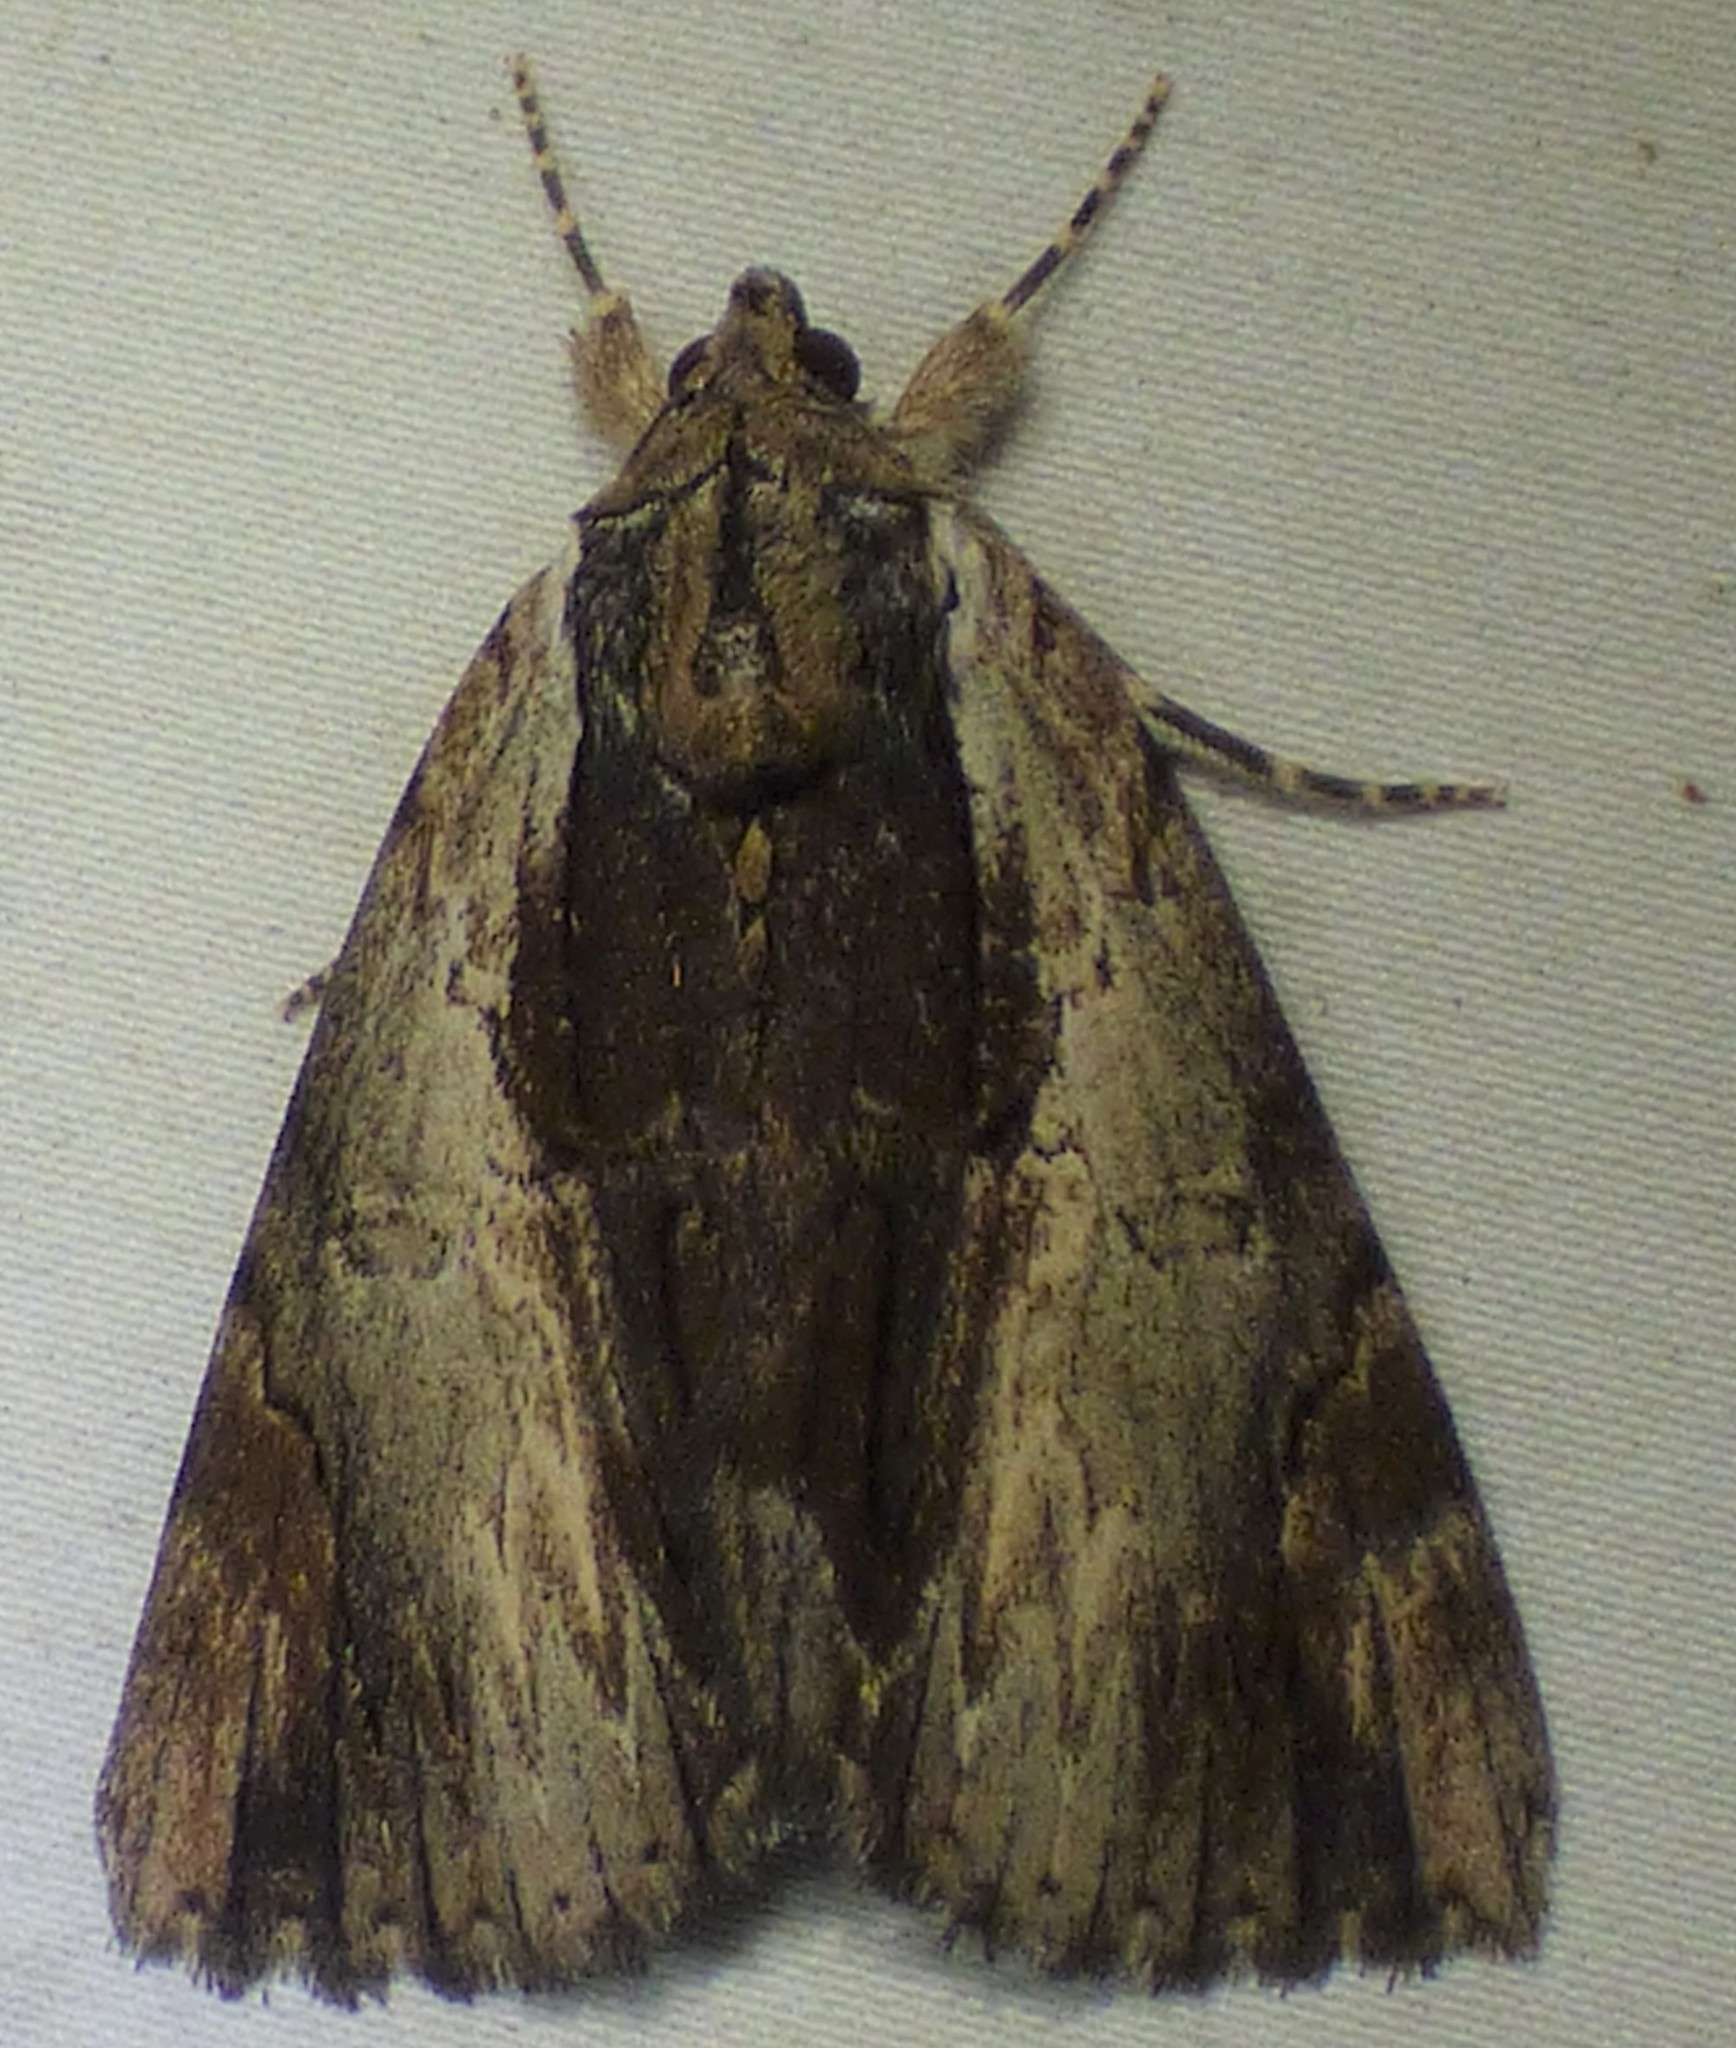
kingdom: Animalia
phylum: Arthropoda
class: Insecta
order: Lepidoptera
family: Erebidae
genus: Catocala
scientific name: Catocala ultronia
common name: Ultronia underwing
